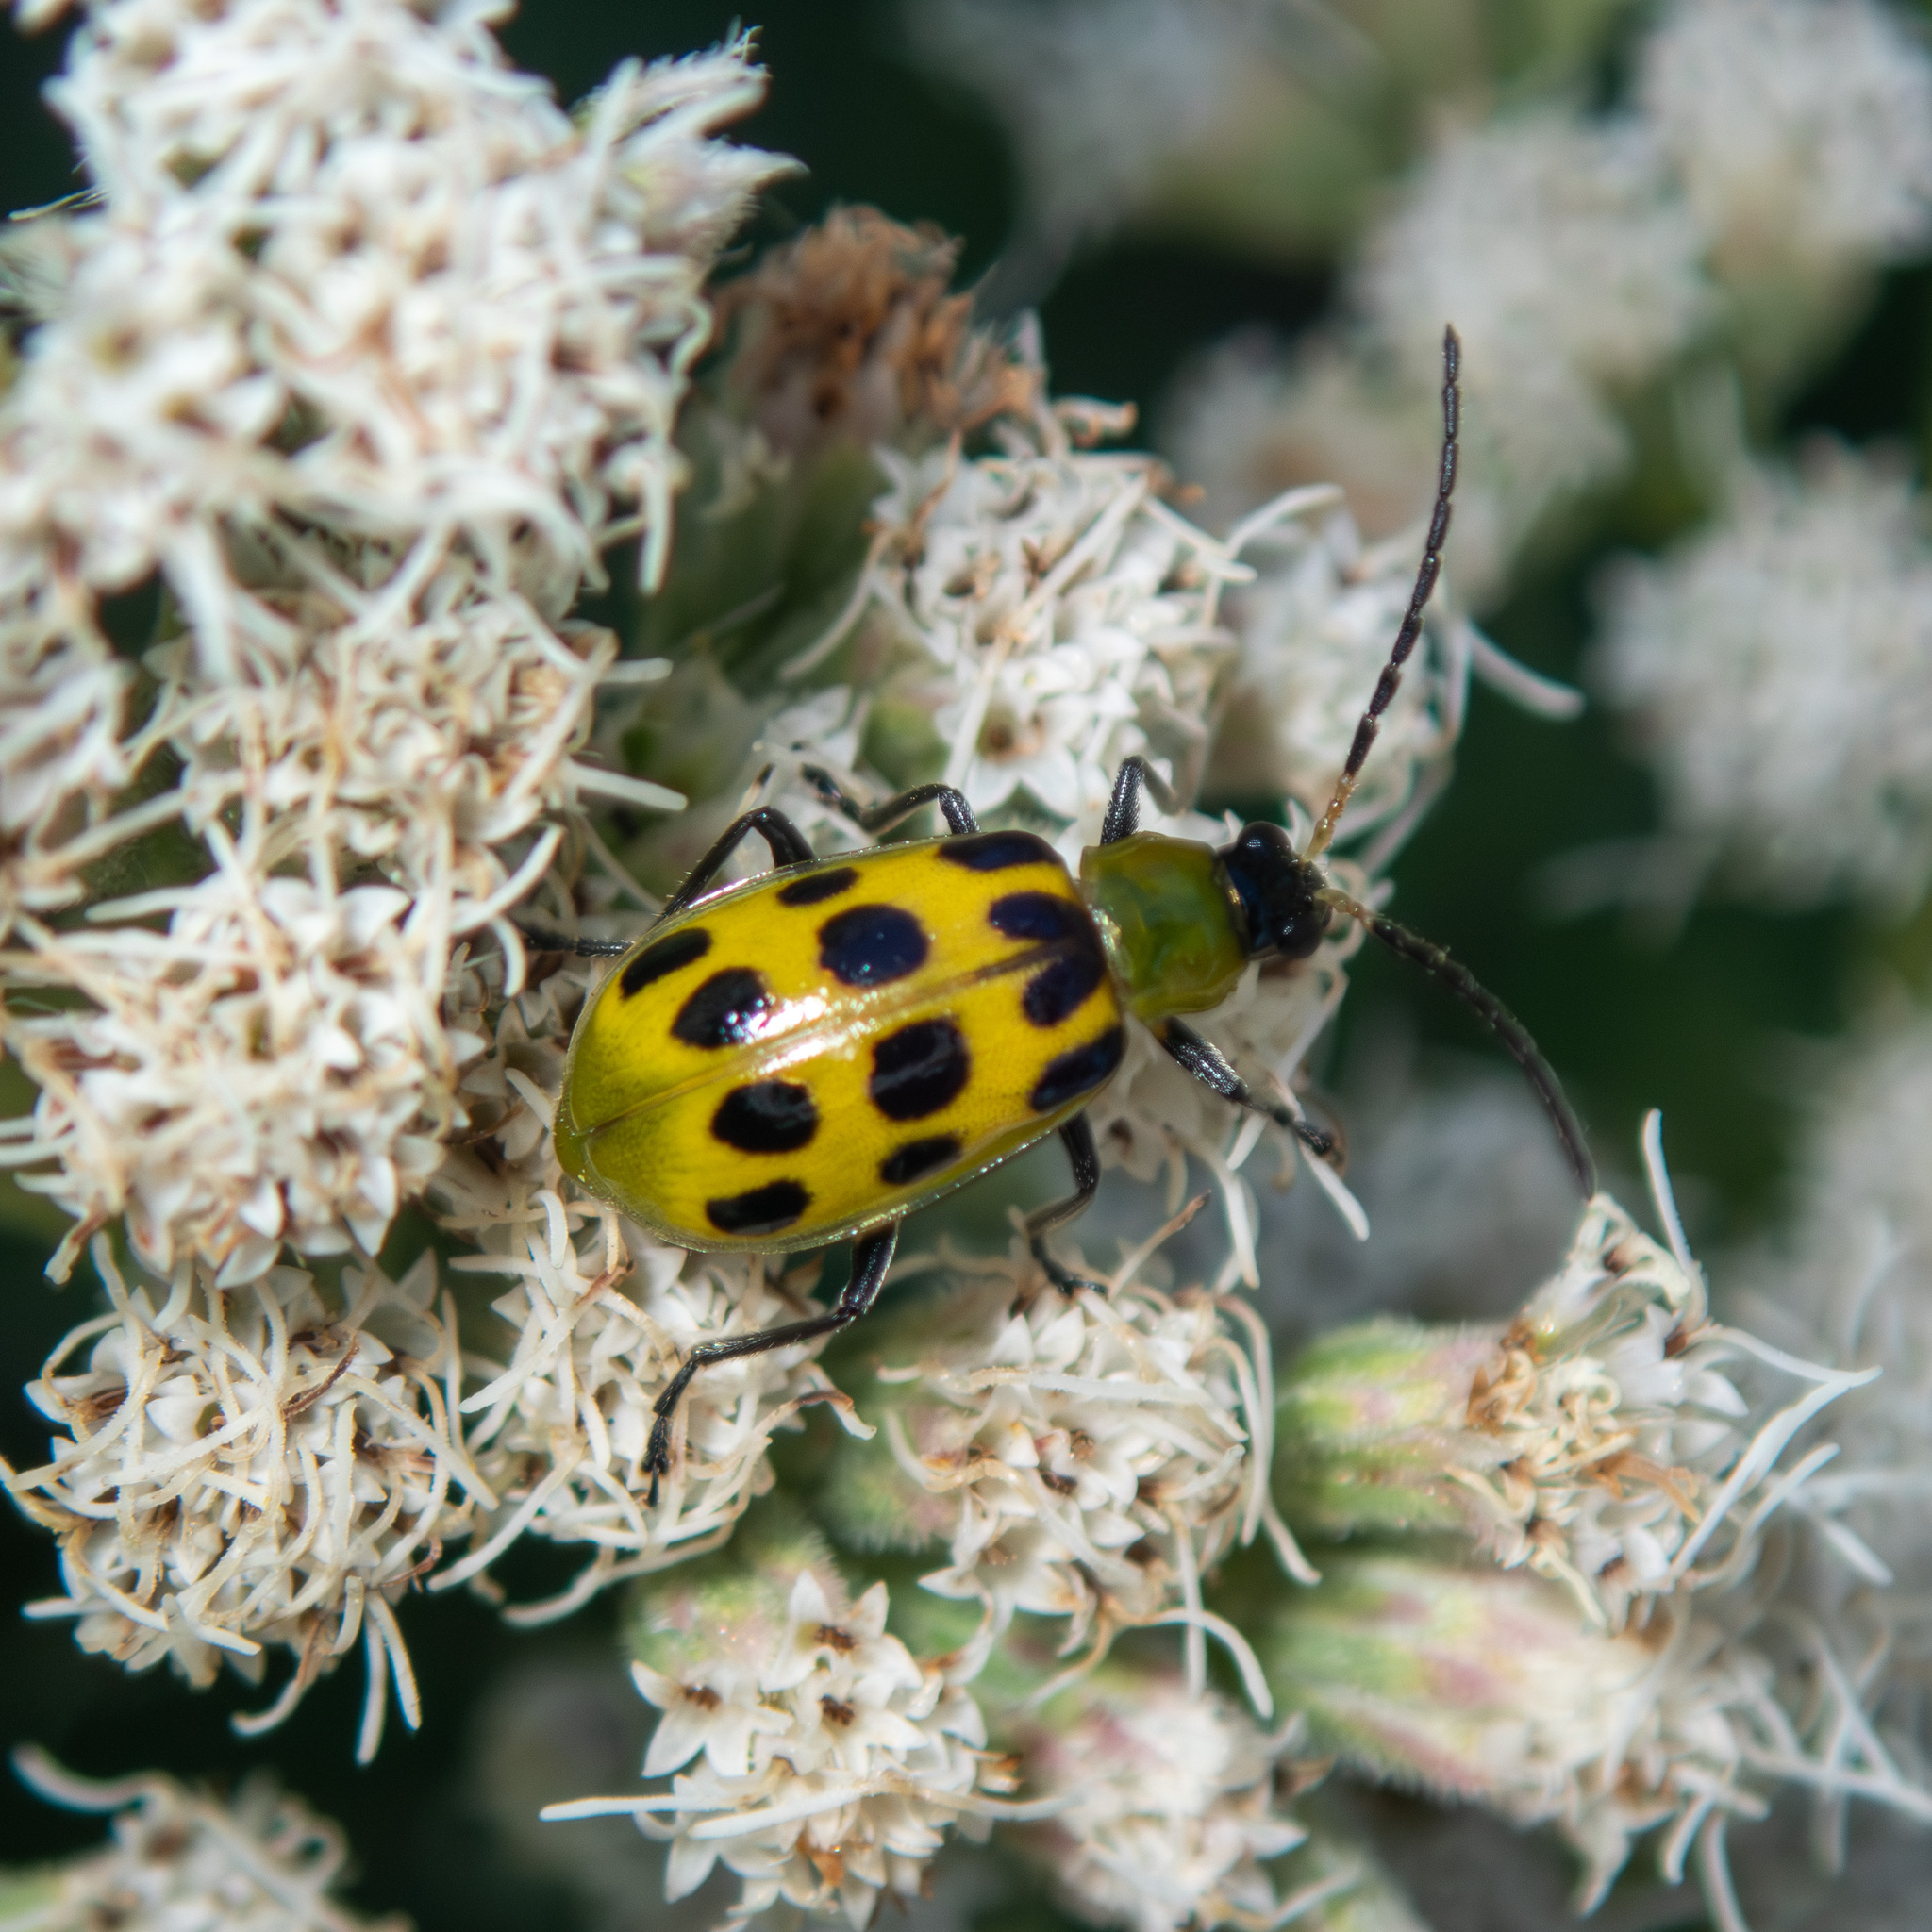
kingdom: Animalia
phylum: Arthropoda
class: Insecta
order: Coleoptera
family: Chrysomelidae
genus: Diabrotica
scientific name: Diabrotica undecimpunctata
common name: Spotted cucumber beetle
